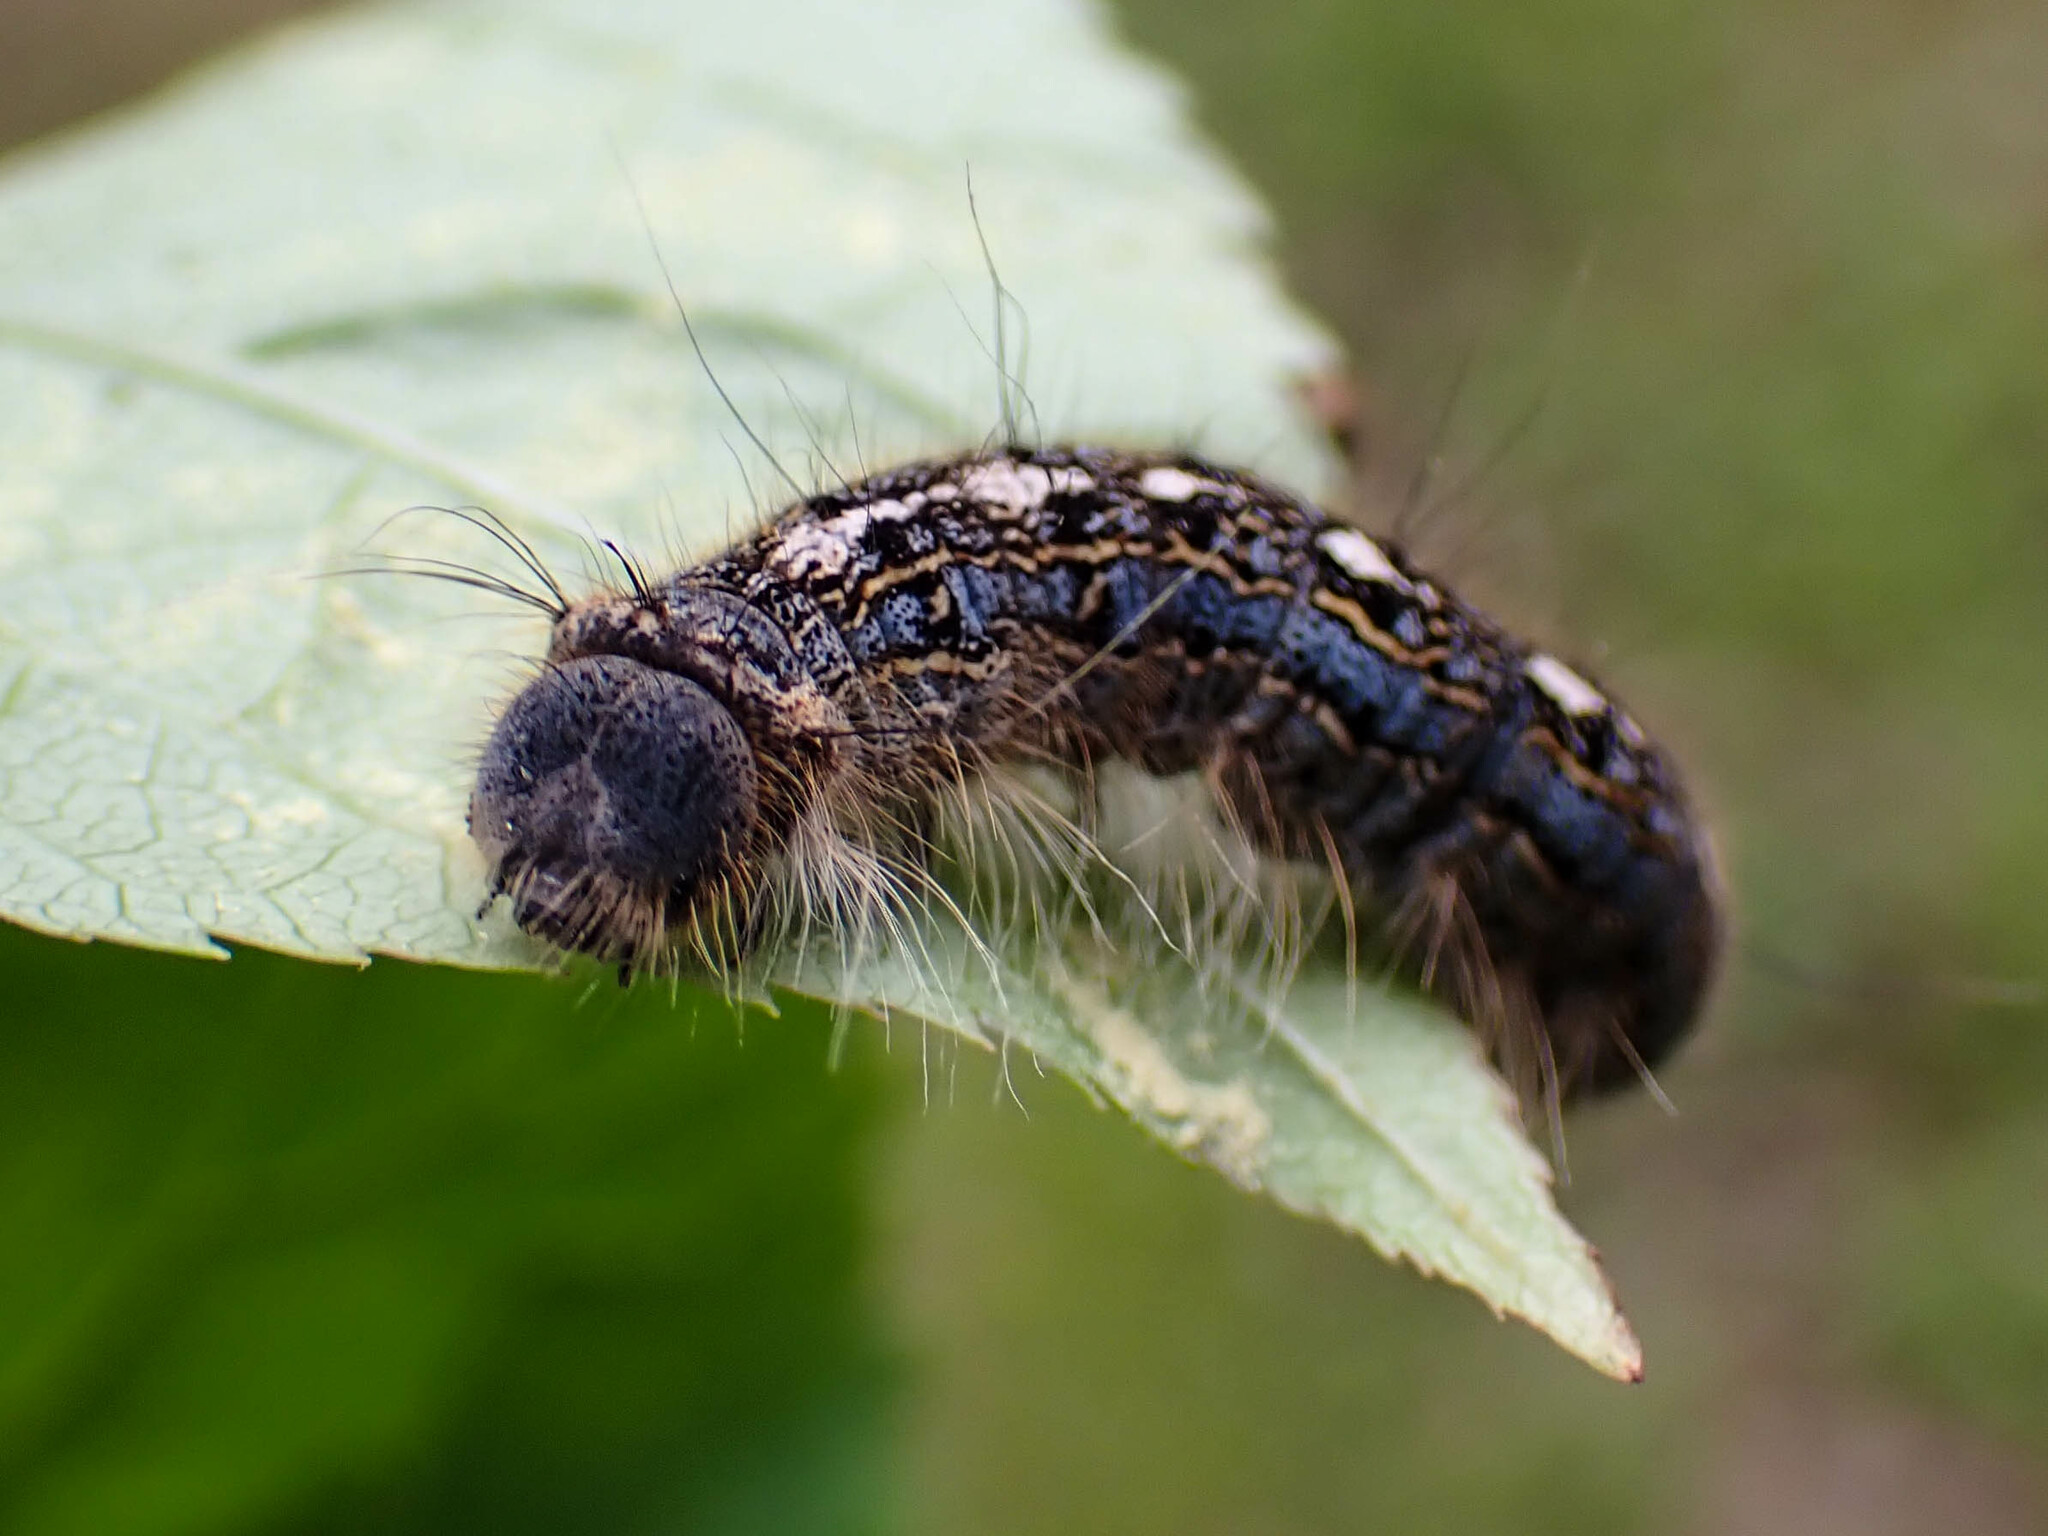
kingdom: Animalia
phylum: Arthropoda
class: Insecta
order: Lepidoptera
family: Lasiocampidae
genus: Malacosoma
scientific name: Malacosoma disstria
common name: Forest tent caterpillar
